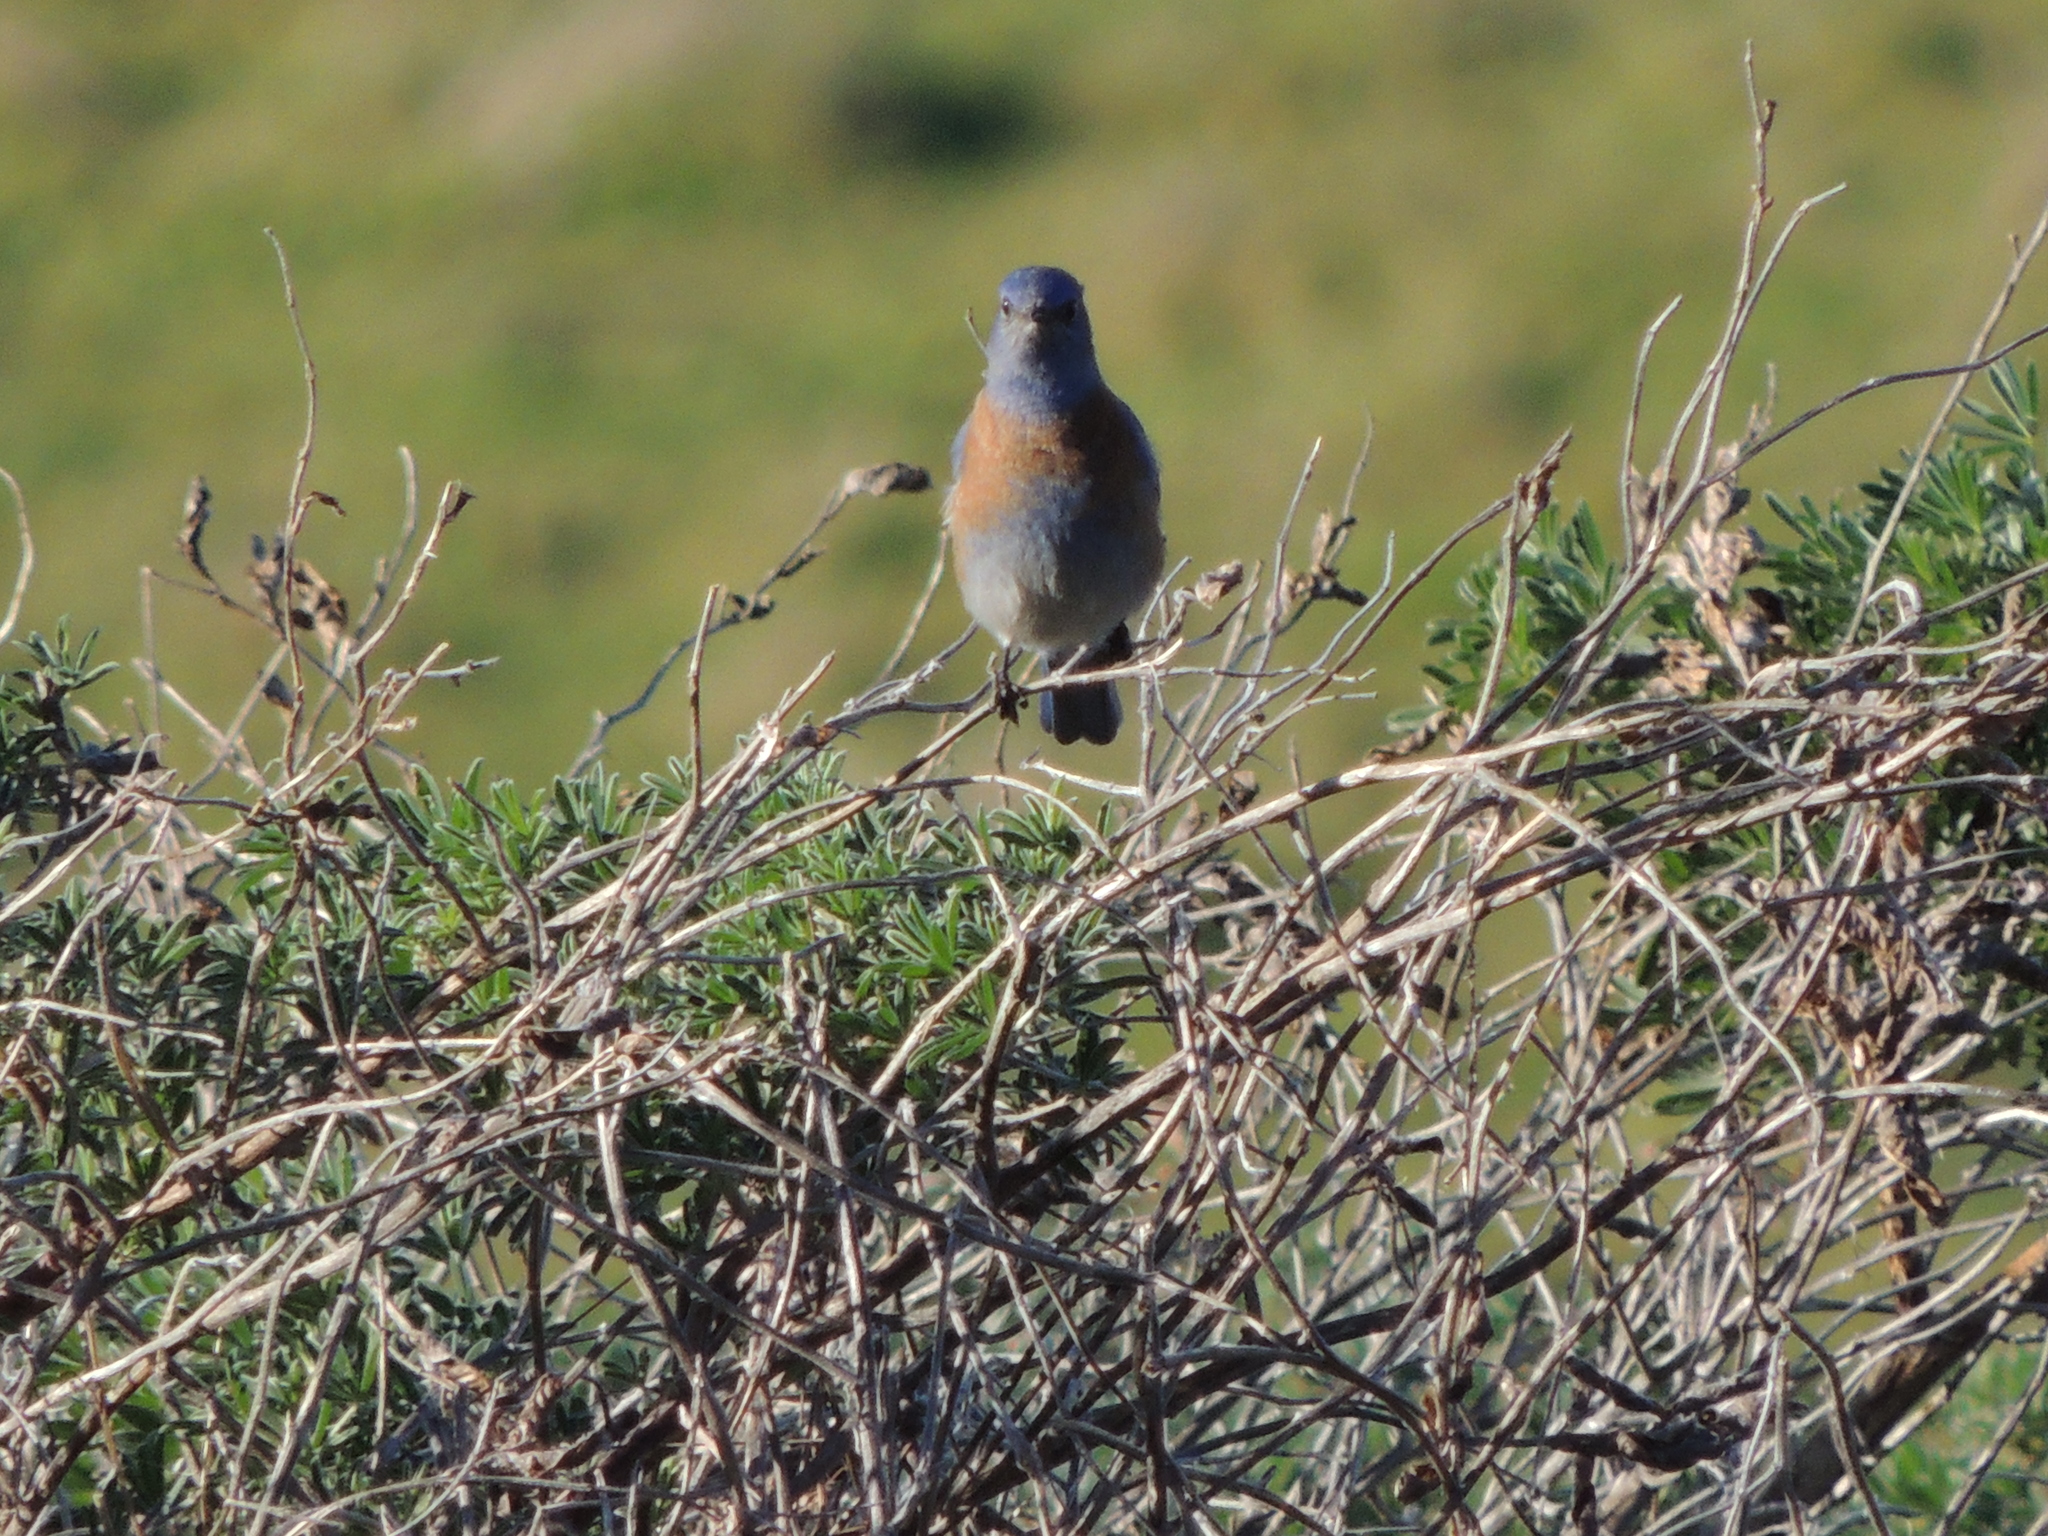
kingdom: Animalia
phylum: Chordata
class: Aves
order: Passeriformes
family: Turdidae
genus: Sialia
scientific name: Sialia mexicana
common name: Western bluebird
